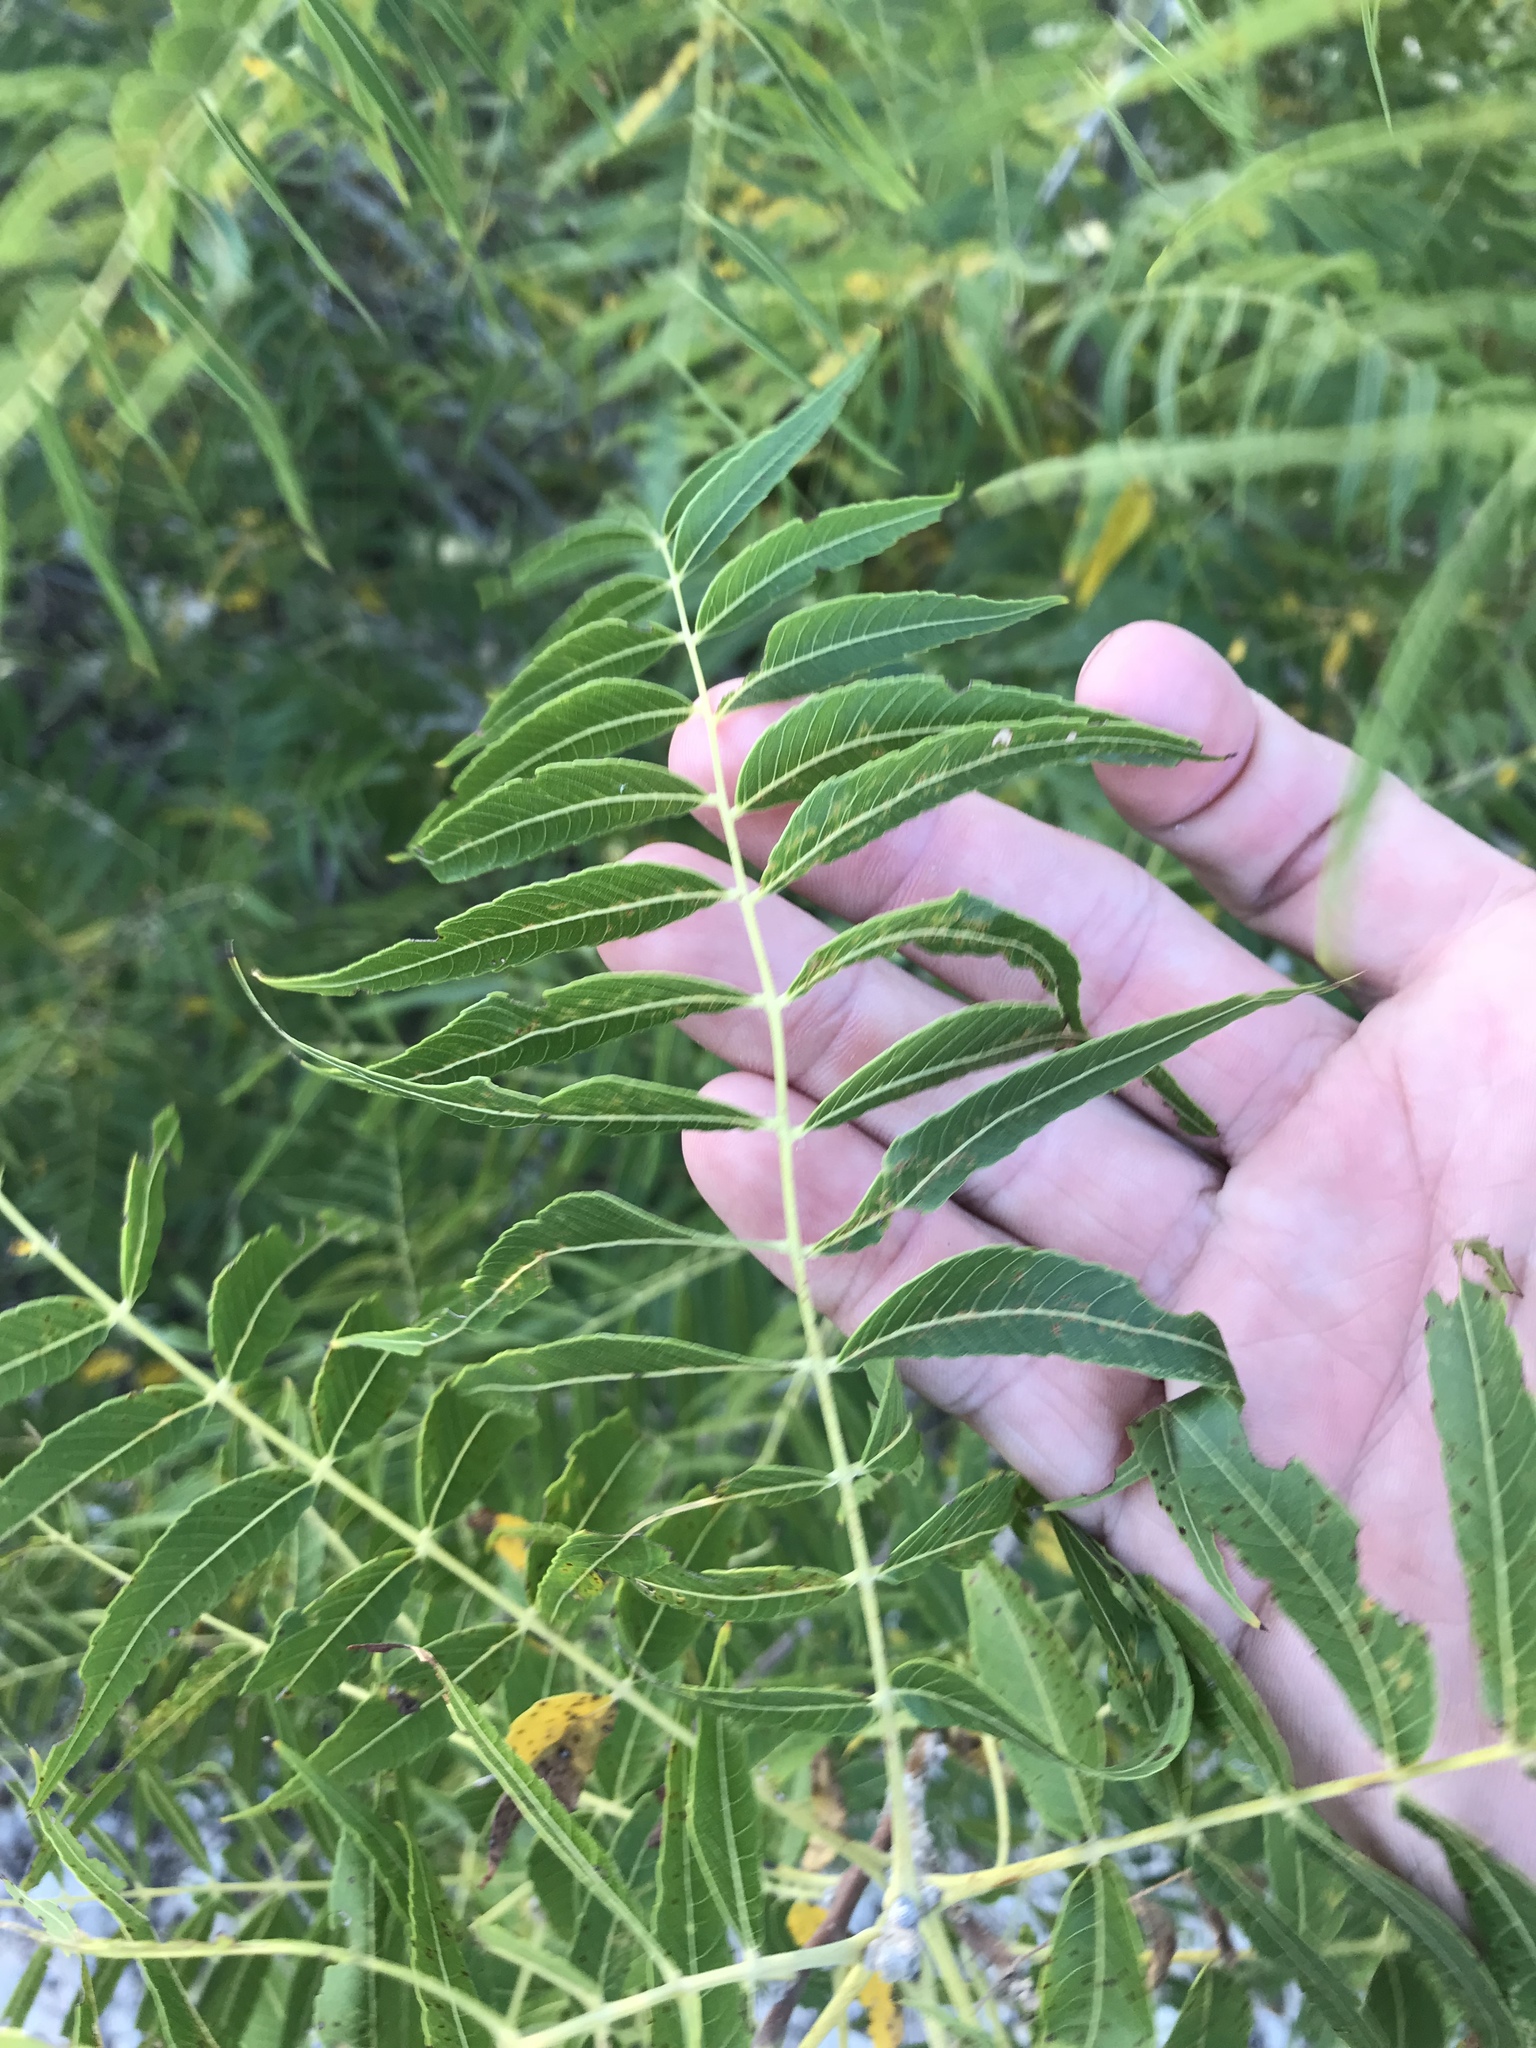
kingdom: Plantae
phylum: Tracheophyta
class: Magnoliopsida
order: Fagales
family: Juglandaceae
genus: Juglans
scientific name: Juglans microcarpa
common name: Texas walnut
